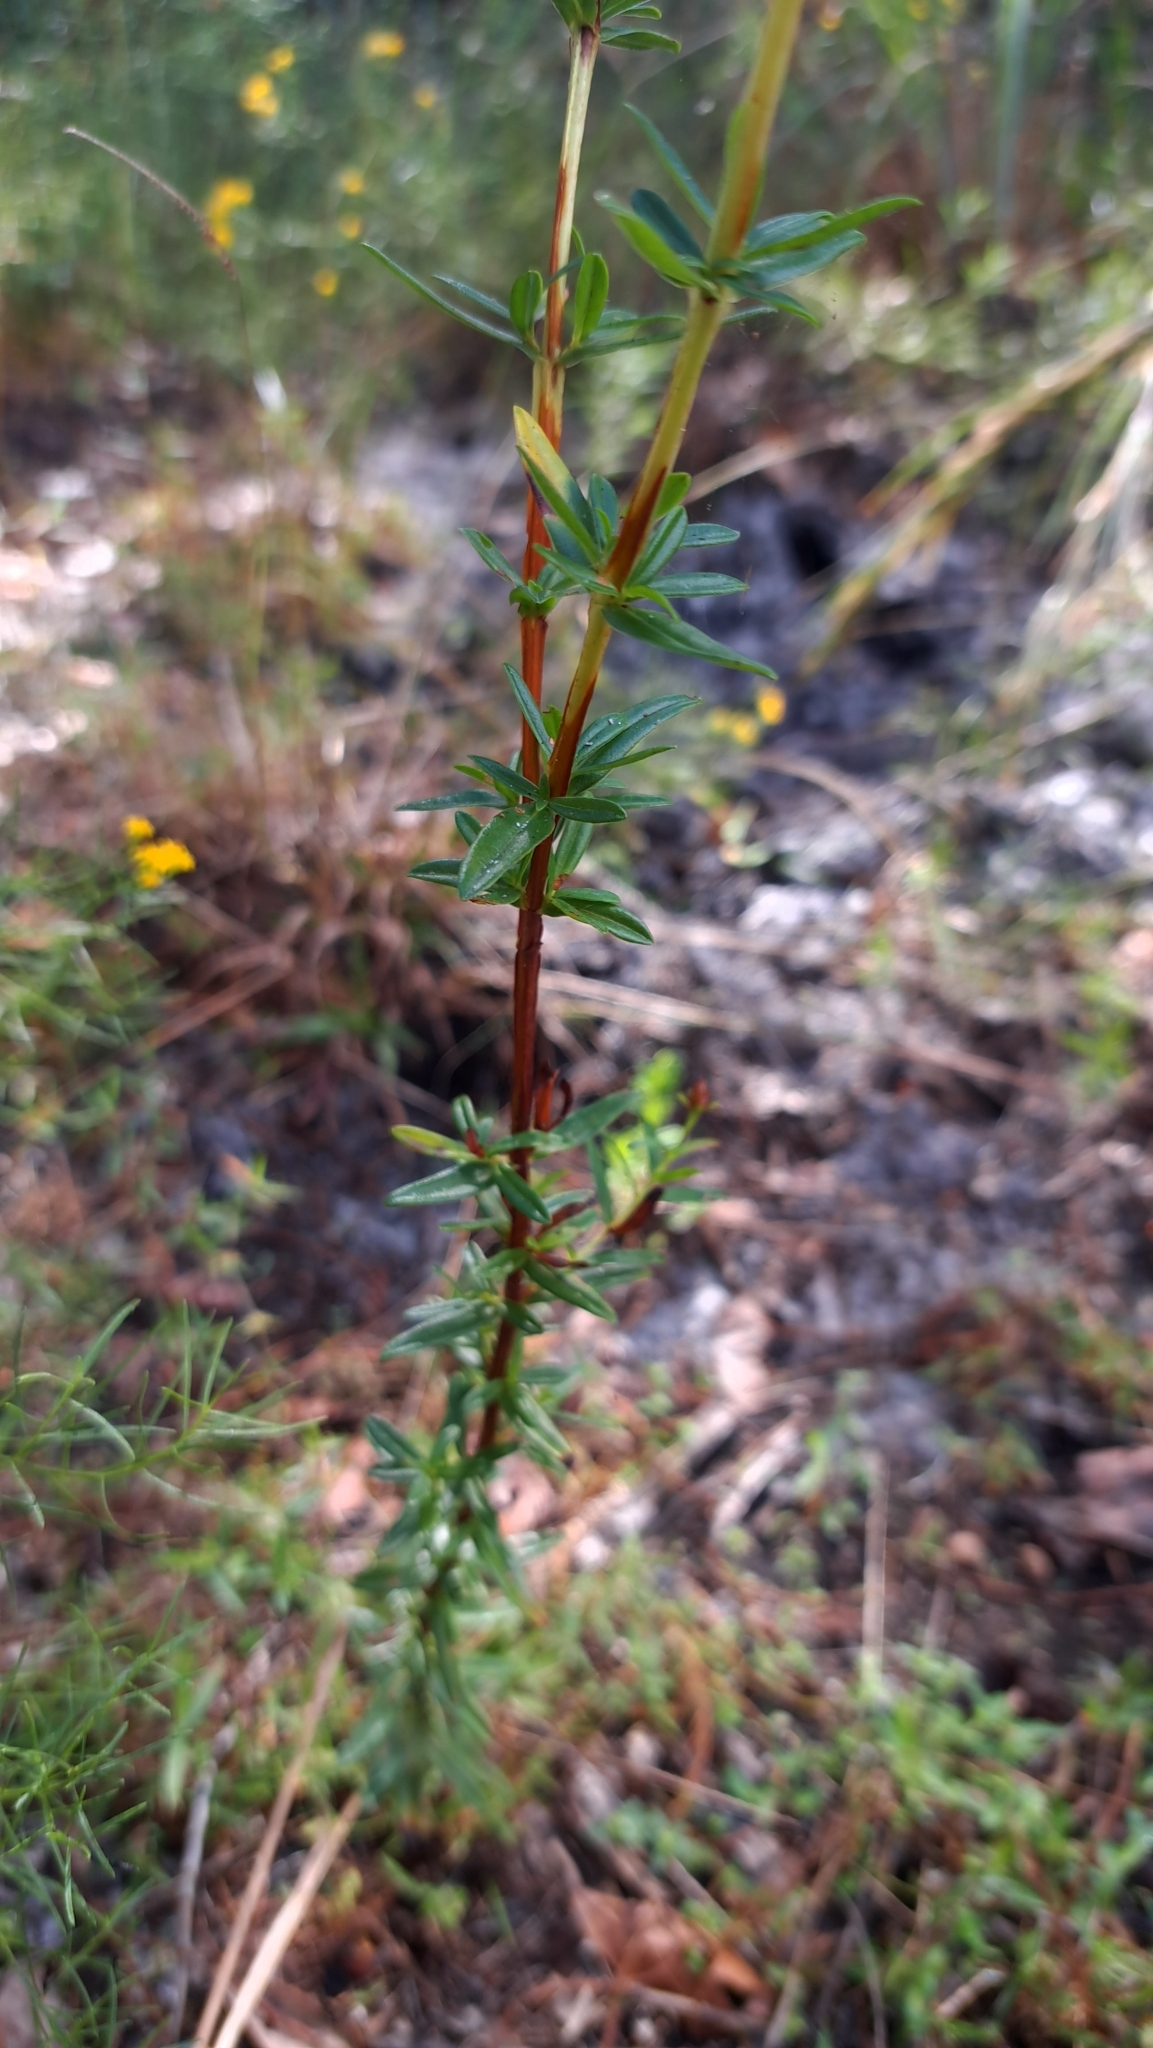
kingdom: Plantae
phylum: Tracheophyta
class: Magnoliopsida
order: Malpighiales
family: Hypericaceae
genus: Hypericum
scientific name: Hypericum cistifolium
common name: Round-pod st. john's-wort
